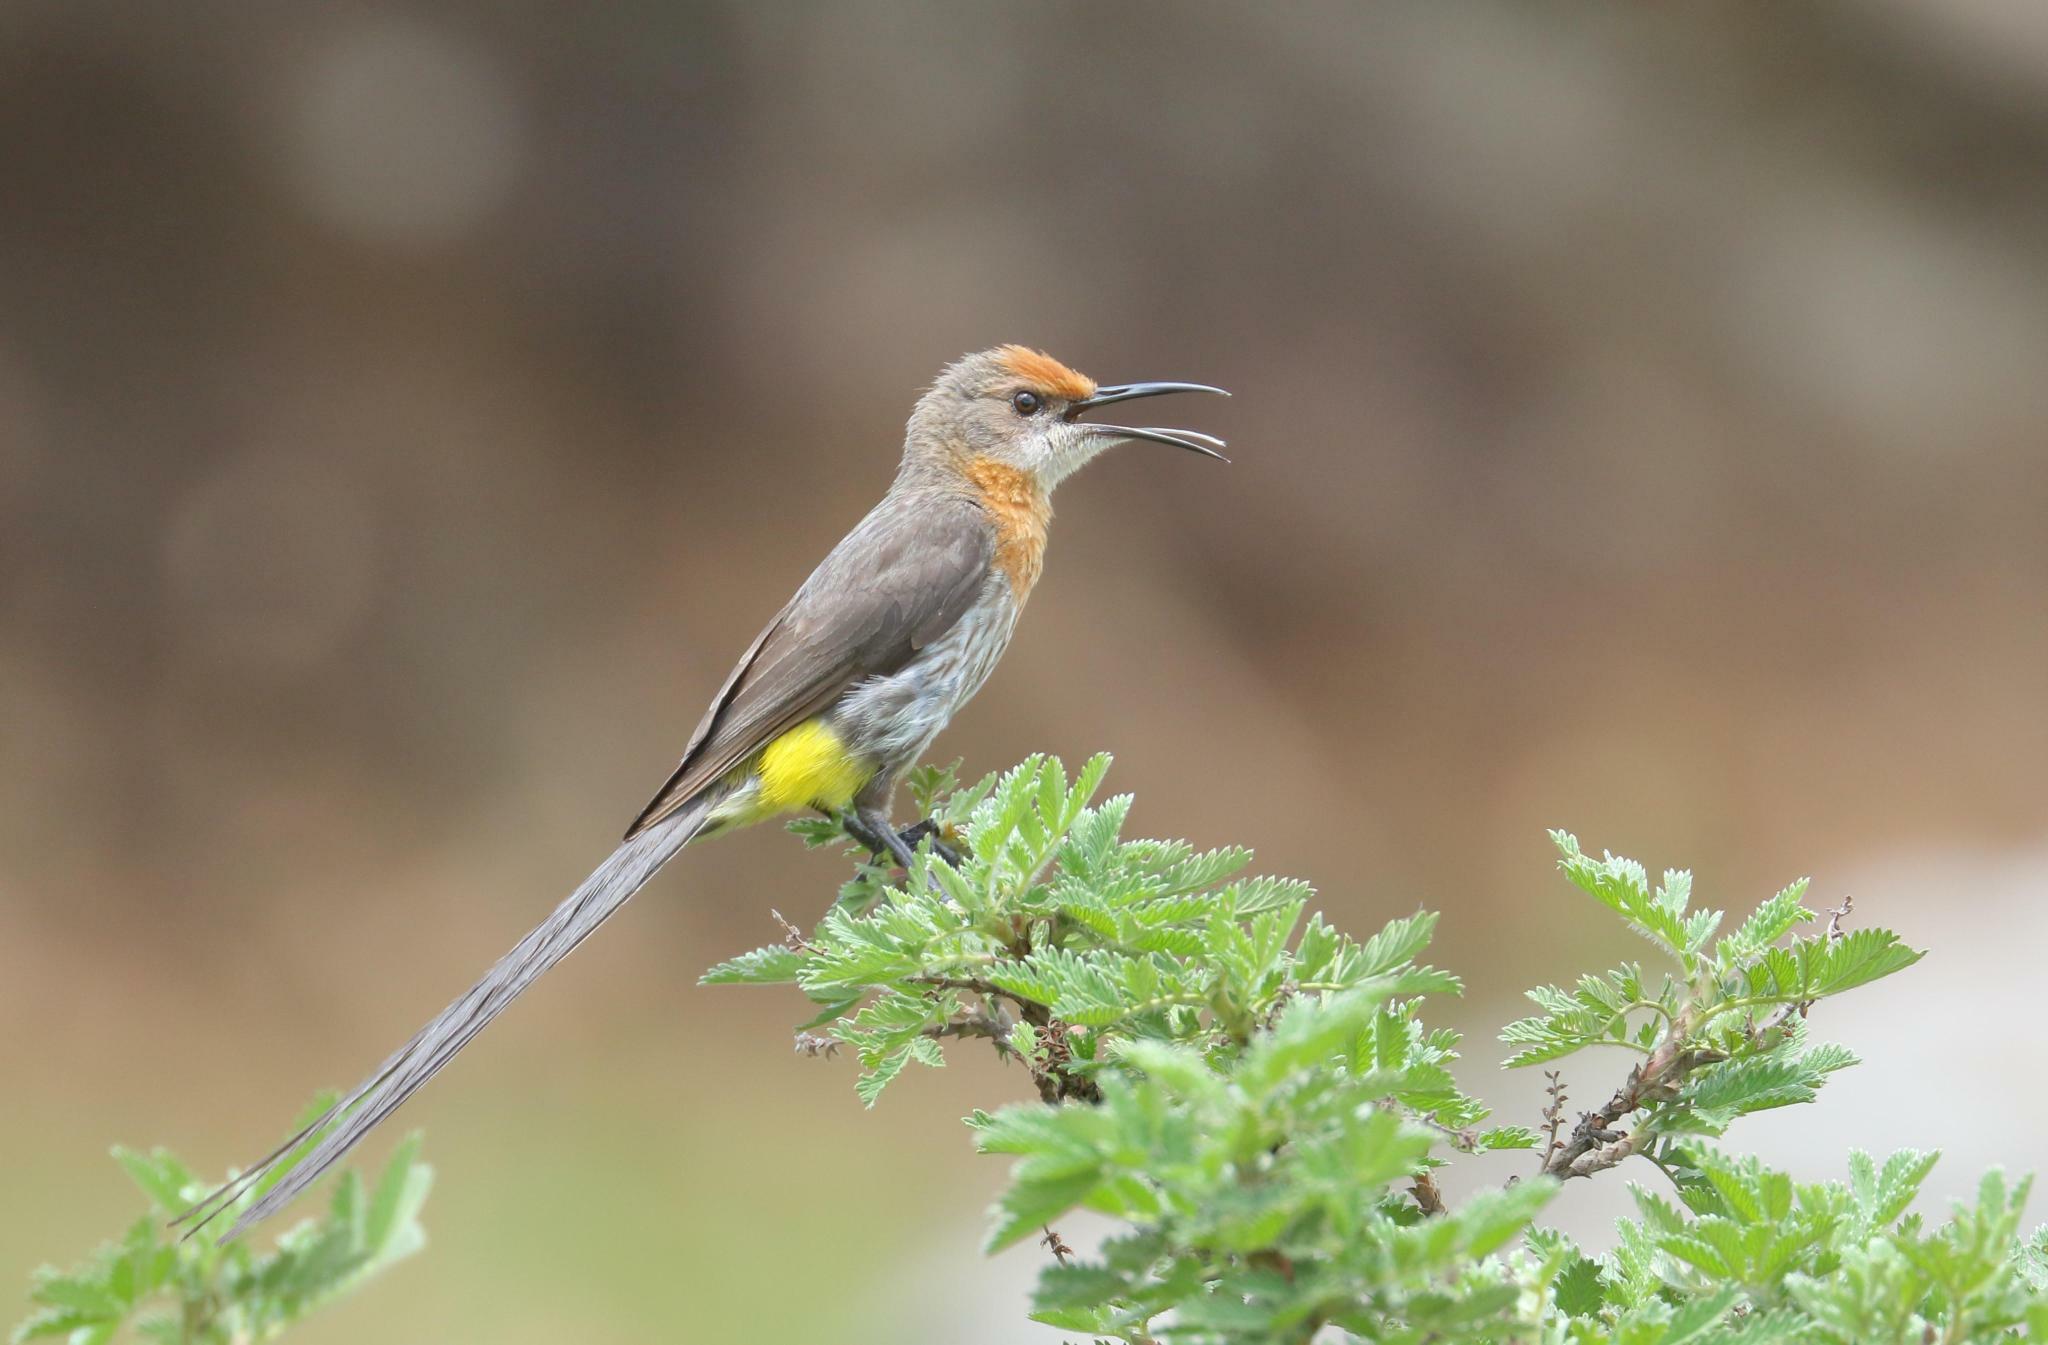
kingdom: Animalia
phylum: Chordata
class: Aves
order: Passeriformes
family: Promeropidae
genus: Promerops
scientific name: Promerops gurneyi
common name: Gurney's sugarbird
